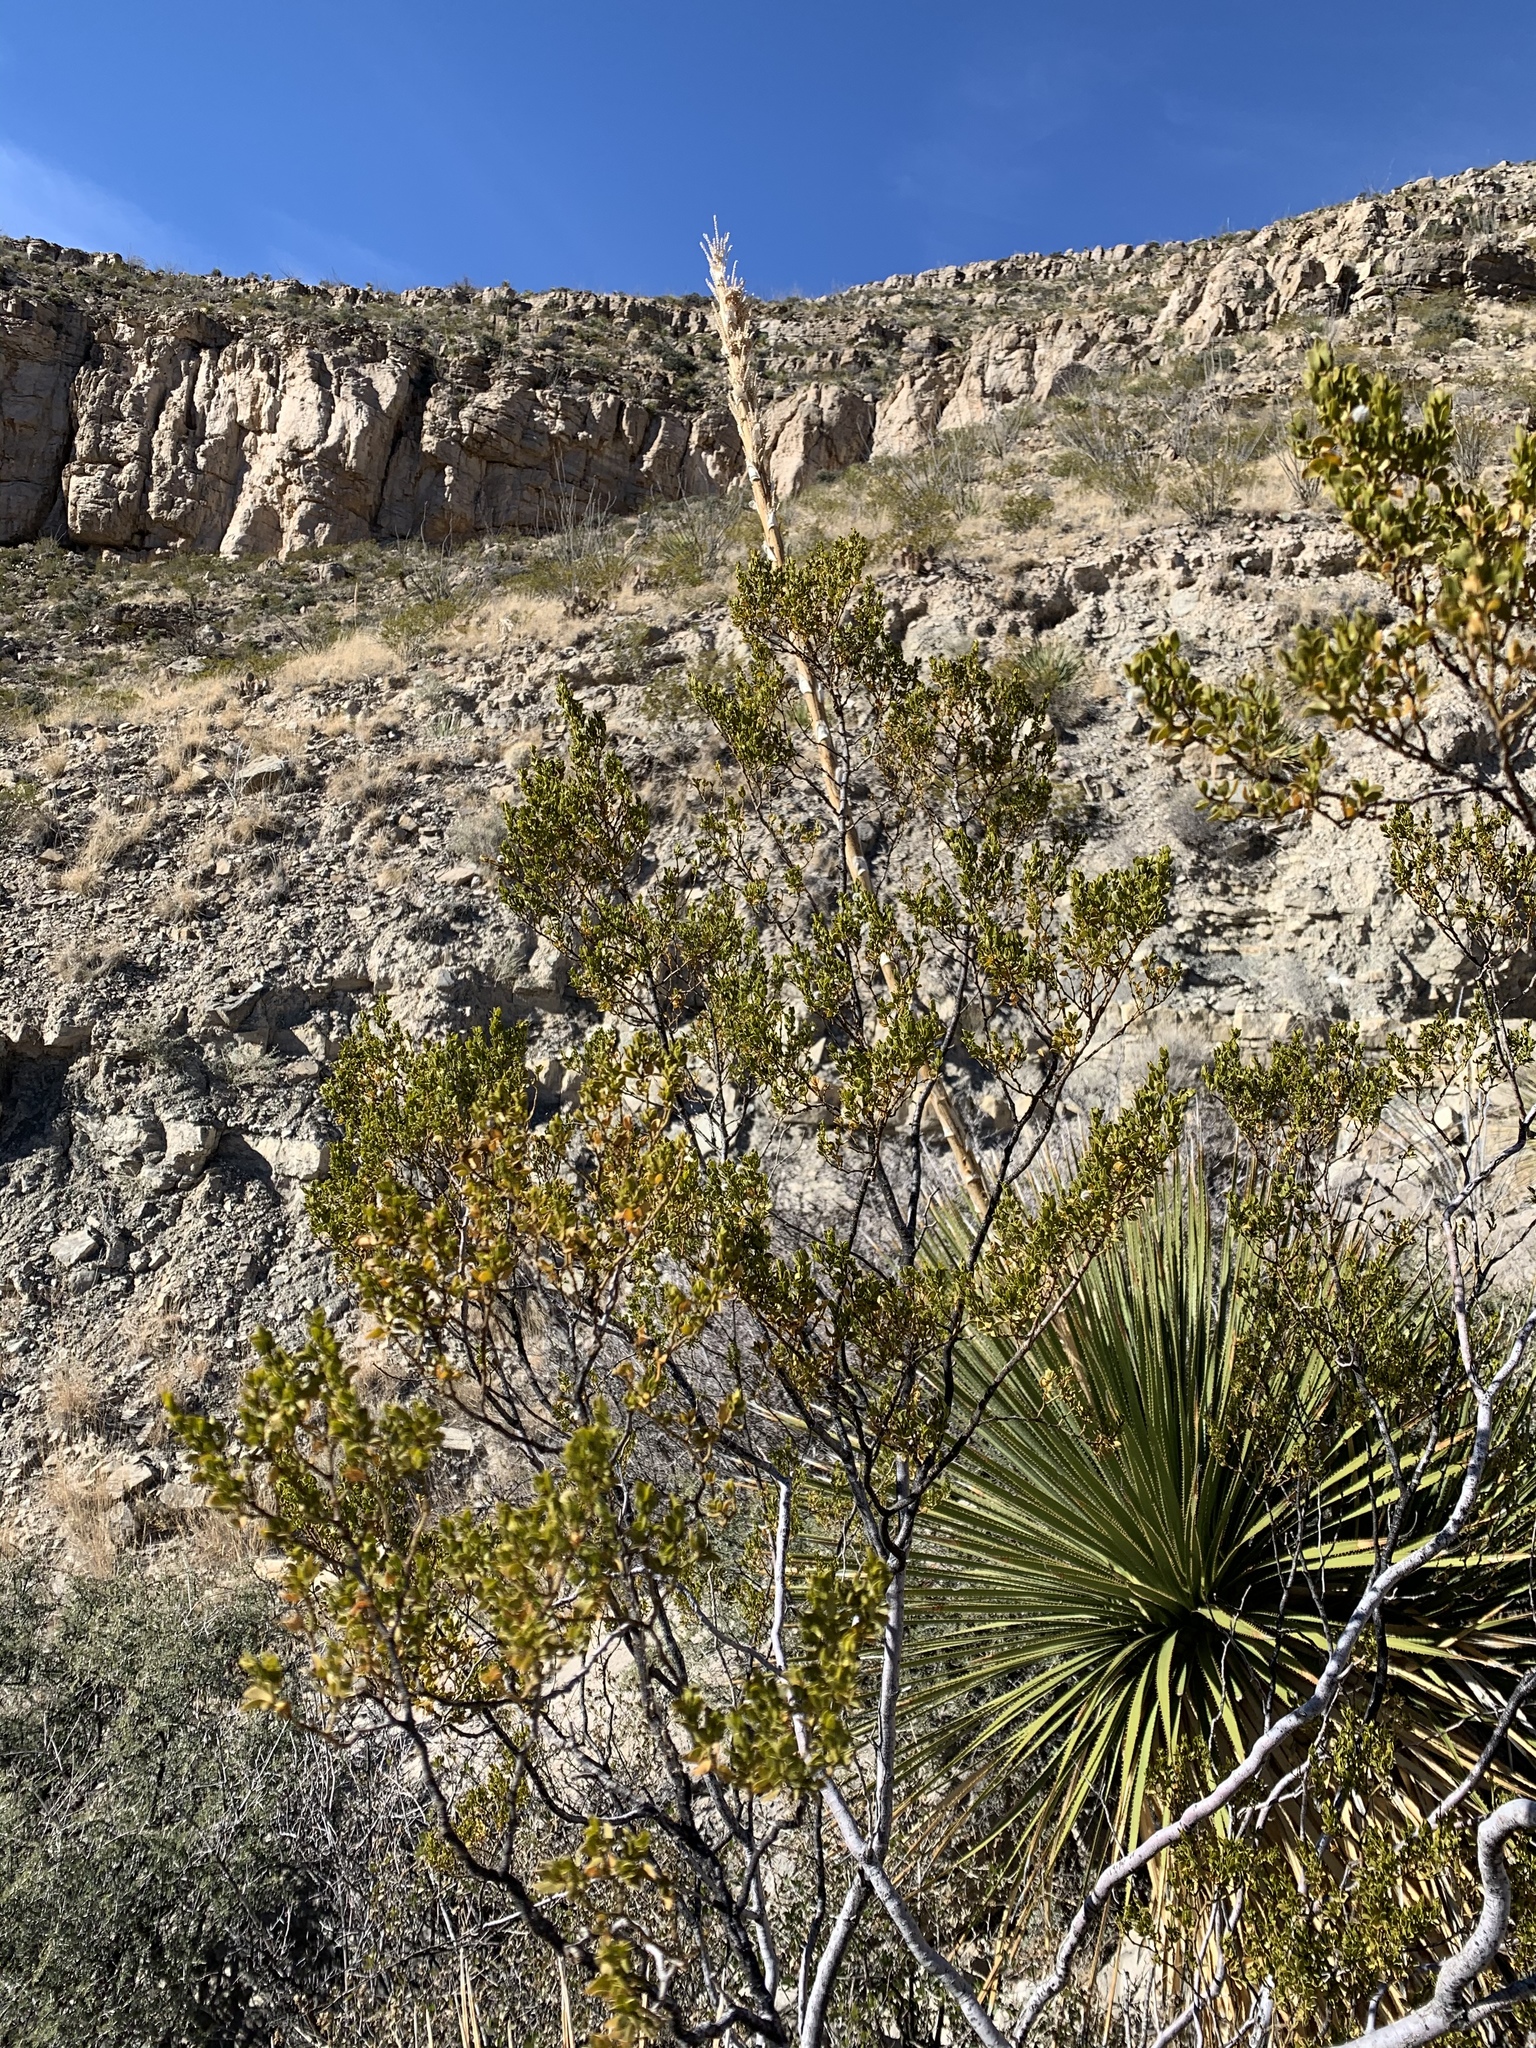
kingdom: Plantae
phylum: Tracheophyta
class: Magnoliopsida
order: Zygophyllales
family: Zygophyllaceae
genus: Larrea
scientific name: Larrea tridentata
